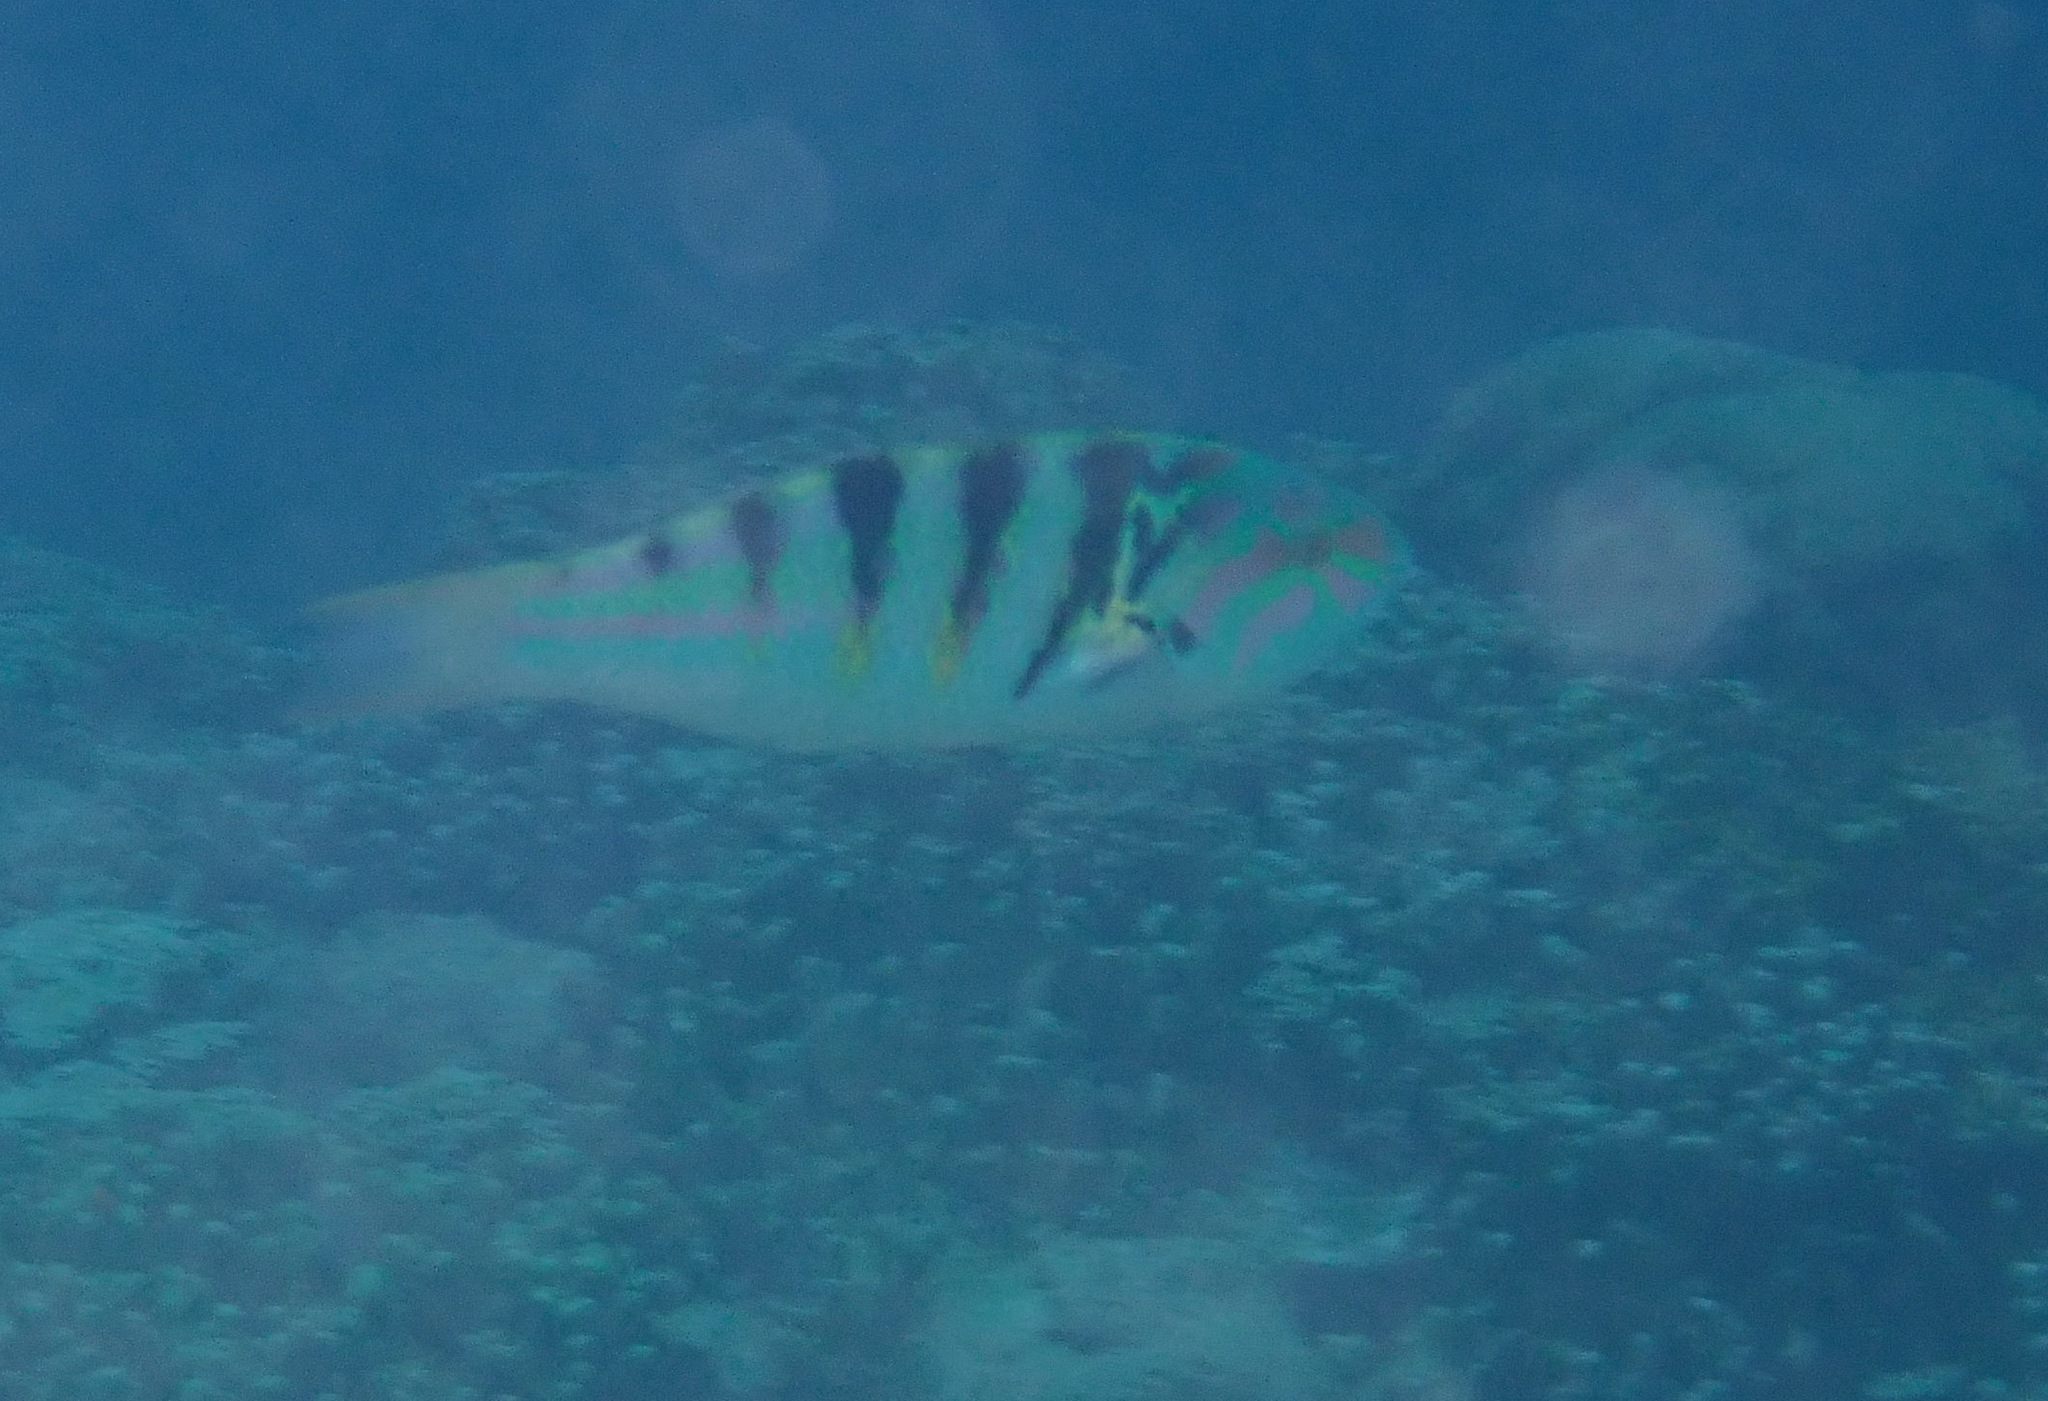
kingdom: Animalia
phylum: Chordata
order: Perciformes
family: Labridae
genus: Thalassoma
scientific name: Thalassoma hardwicke
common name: Sixbar wrasse
